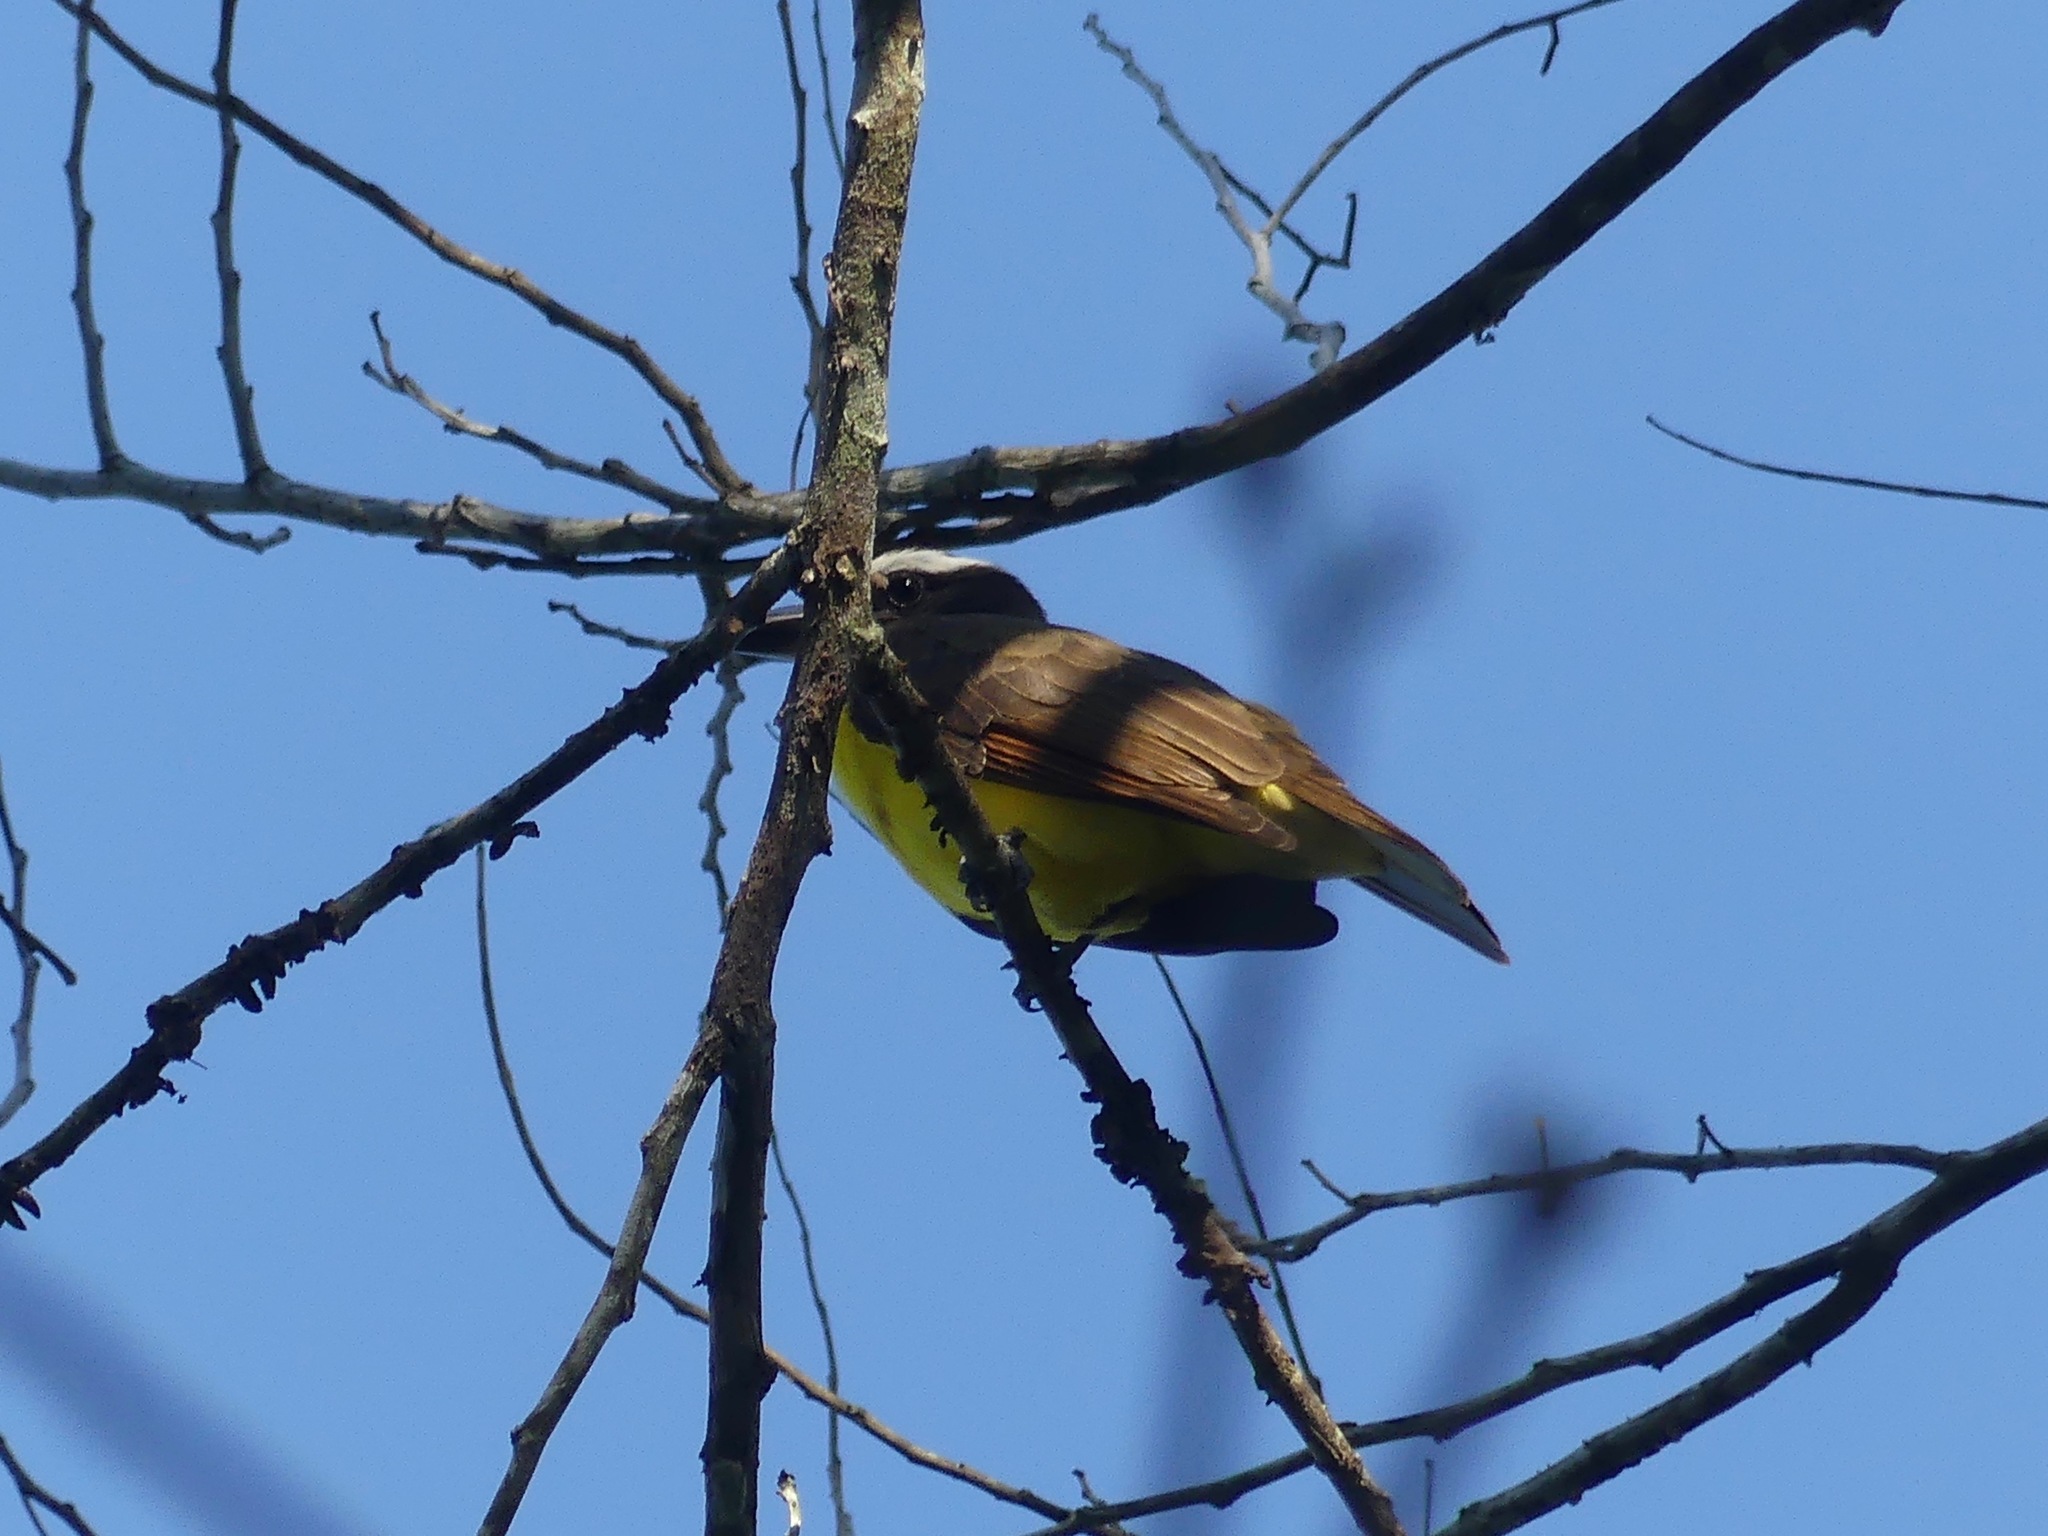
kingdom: Animalia
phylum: Chordata
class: Aves
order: Passeriformes
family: Tyrannidae
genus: Megarynchus
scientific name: Megarynchus pitangua
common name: Boat-billed flycatcher
